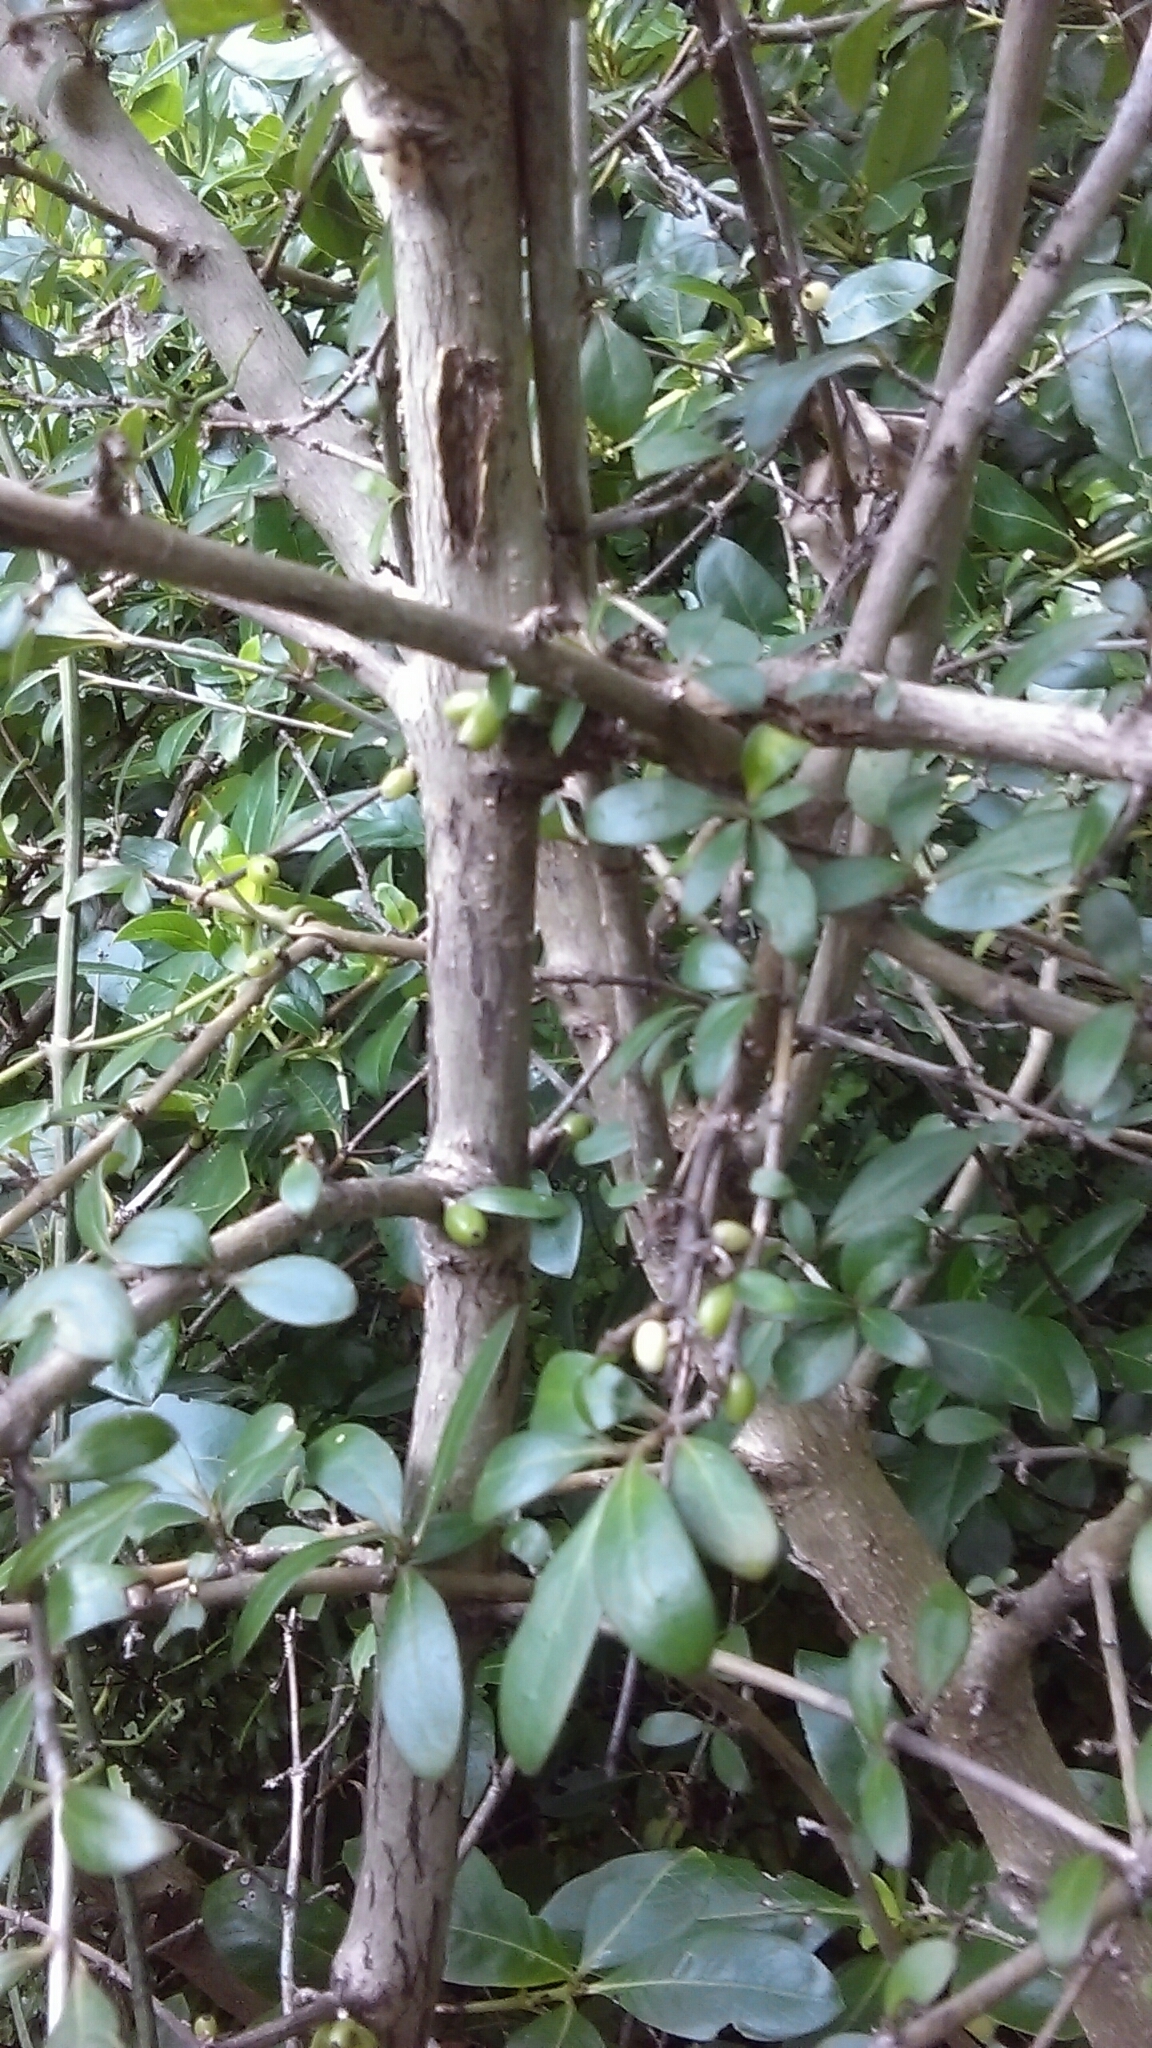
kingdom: Plantae
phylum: Tracheophyta
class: Magnoliopsida
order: Gentianales
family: Rubiaceae
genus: Coprosma
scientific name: Coprosma cunninghamii
